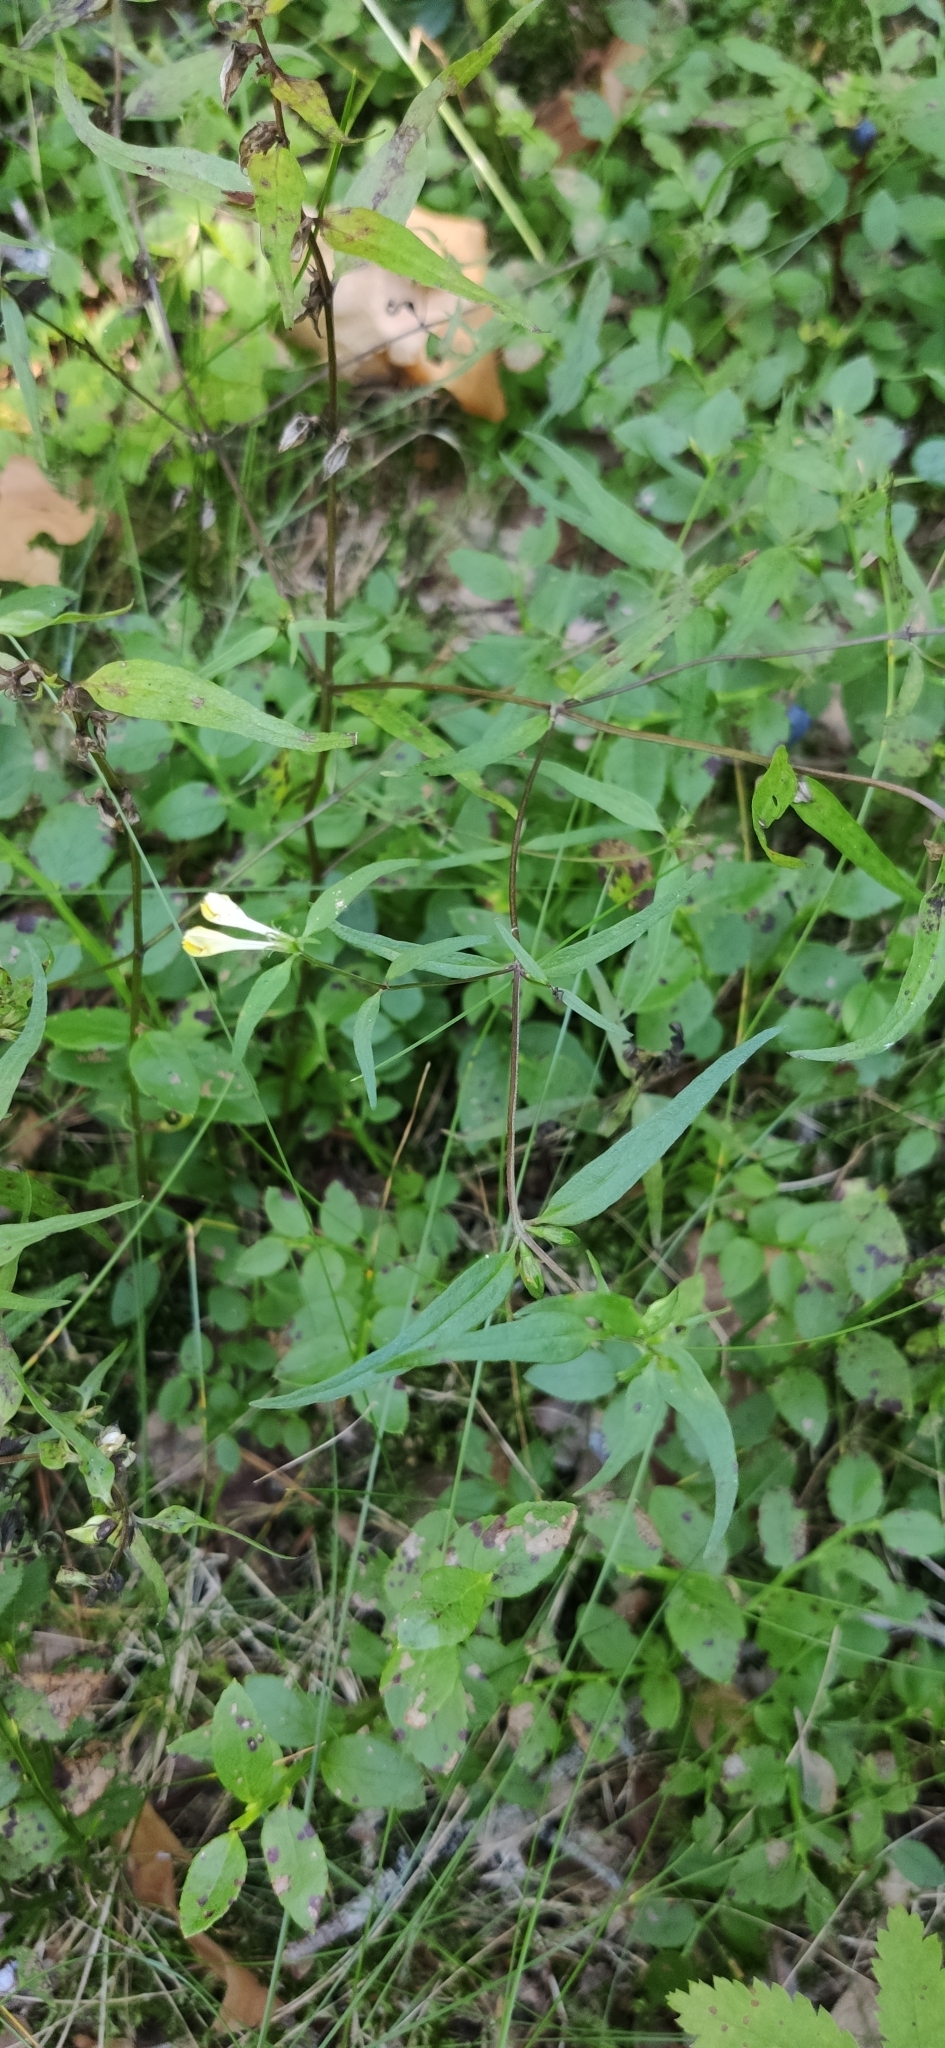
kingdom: Plantae
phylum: Tracheophyta
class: Magnoliopsida
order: Lamiales
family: Orobanchaceae
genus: Melampyrum
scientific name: Melampyrum pratense
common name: Common cow-wheat
